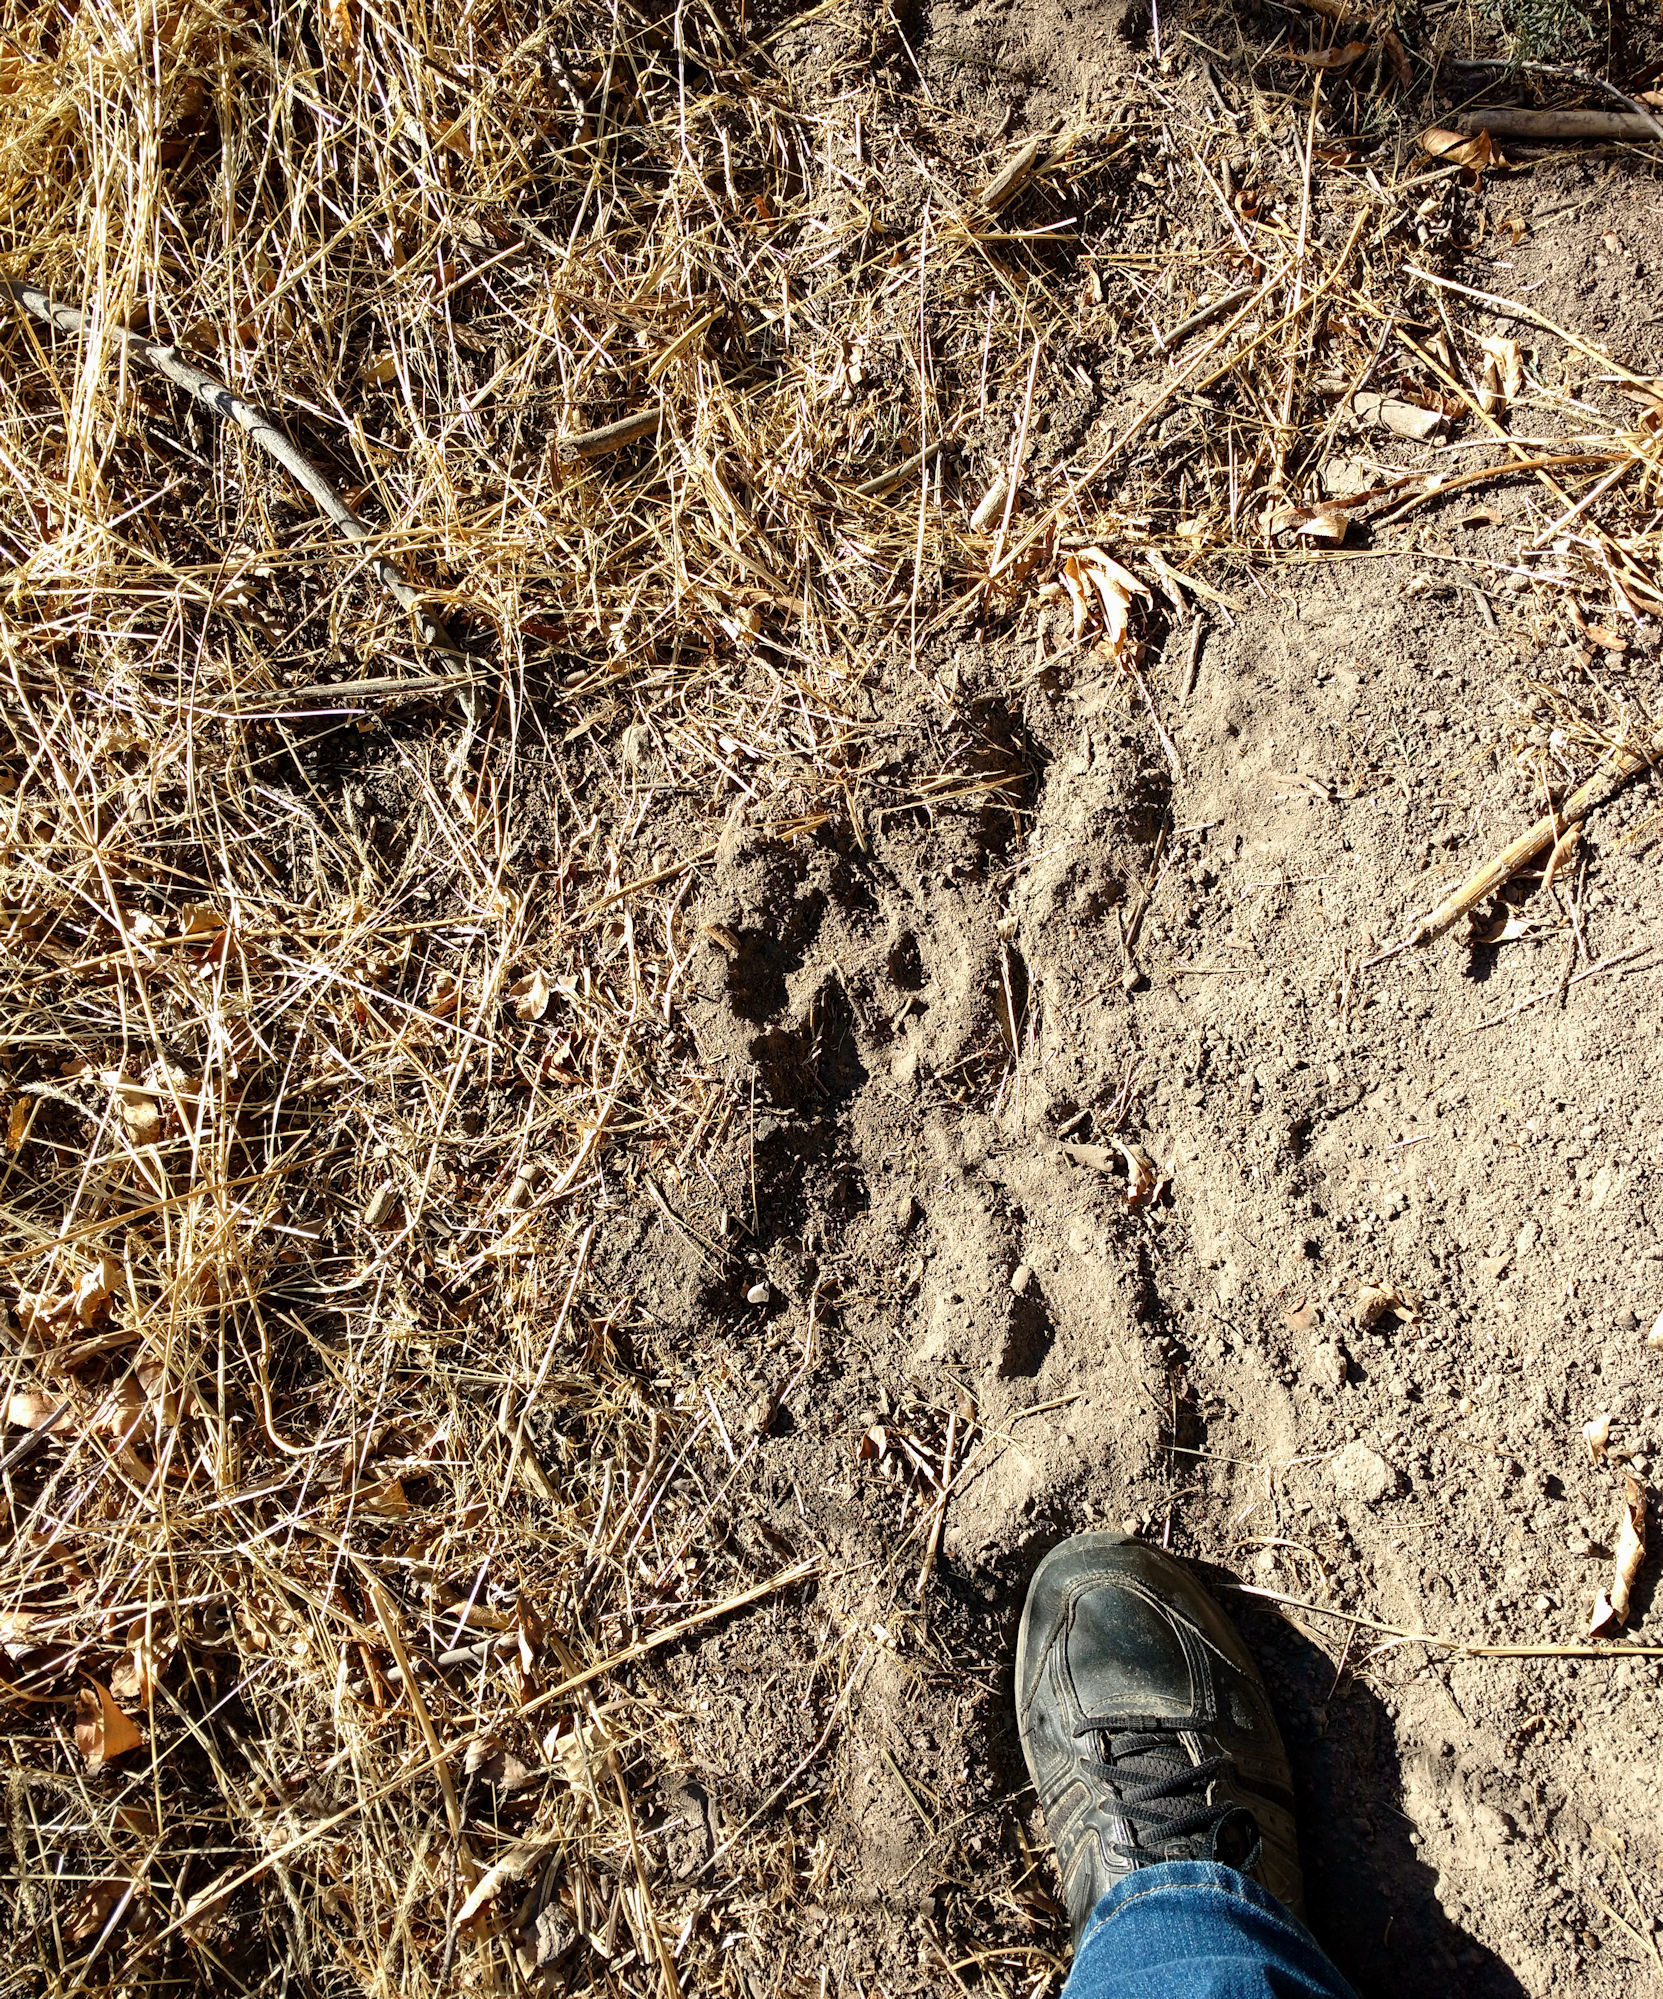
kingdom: Animalia
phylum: Chordata
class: Mammalia
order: Carnivora
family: Felidae
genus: Puma
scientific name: Puma concolor
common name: Puma
